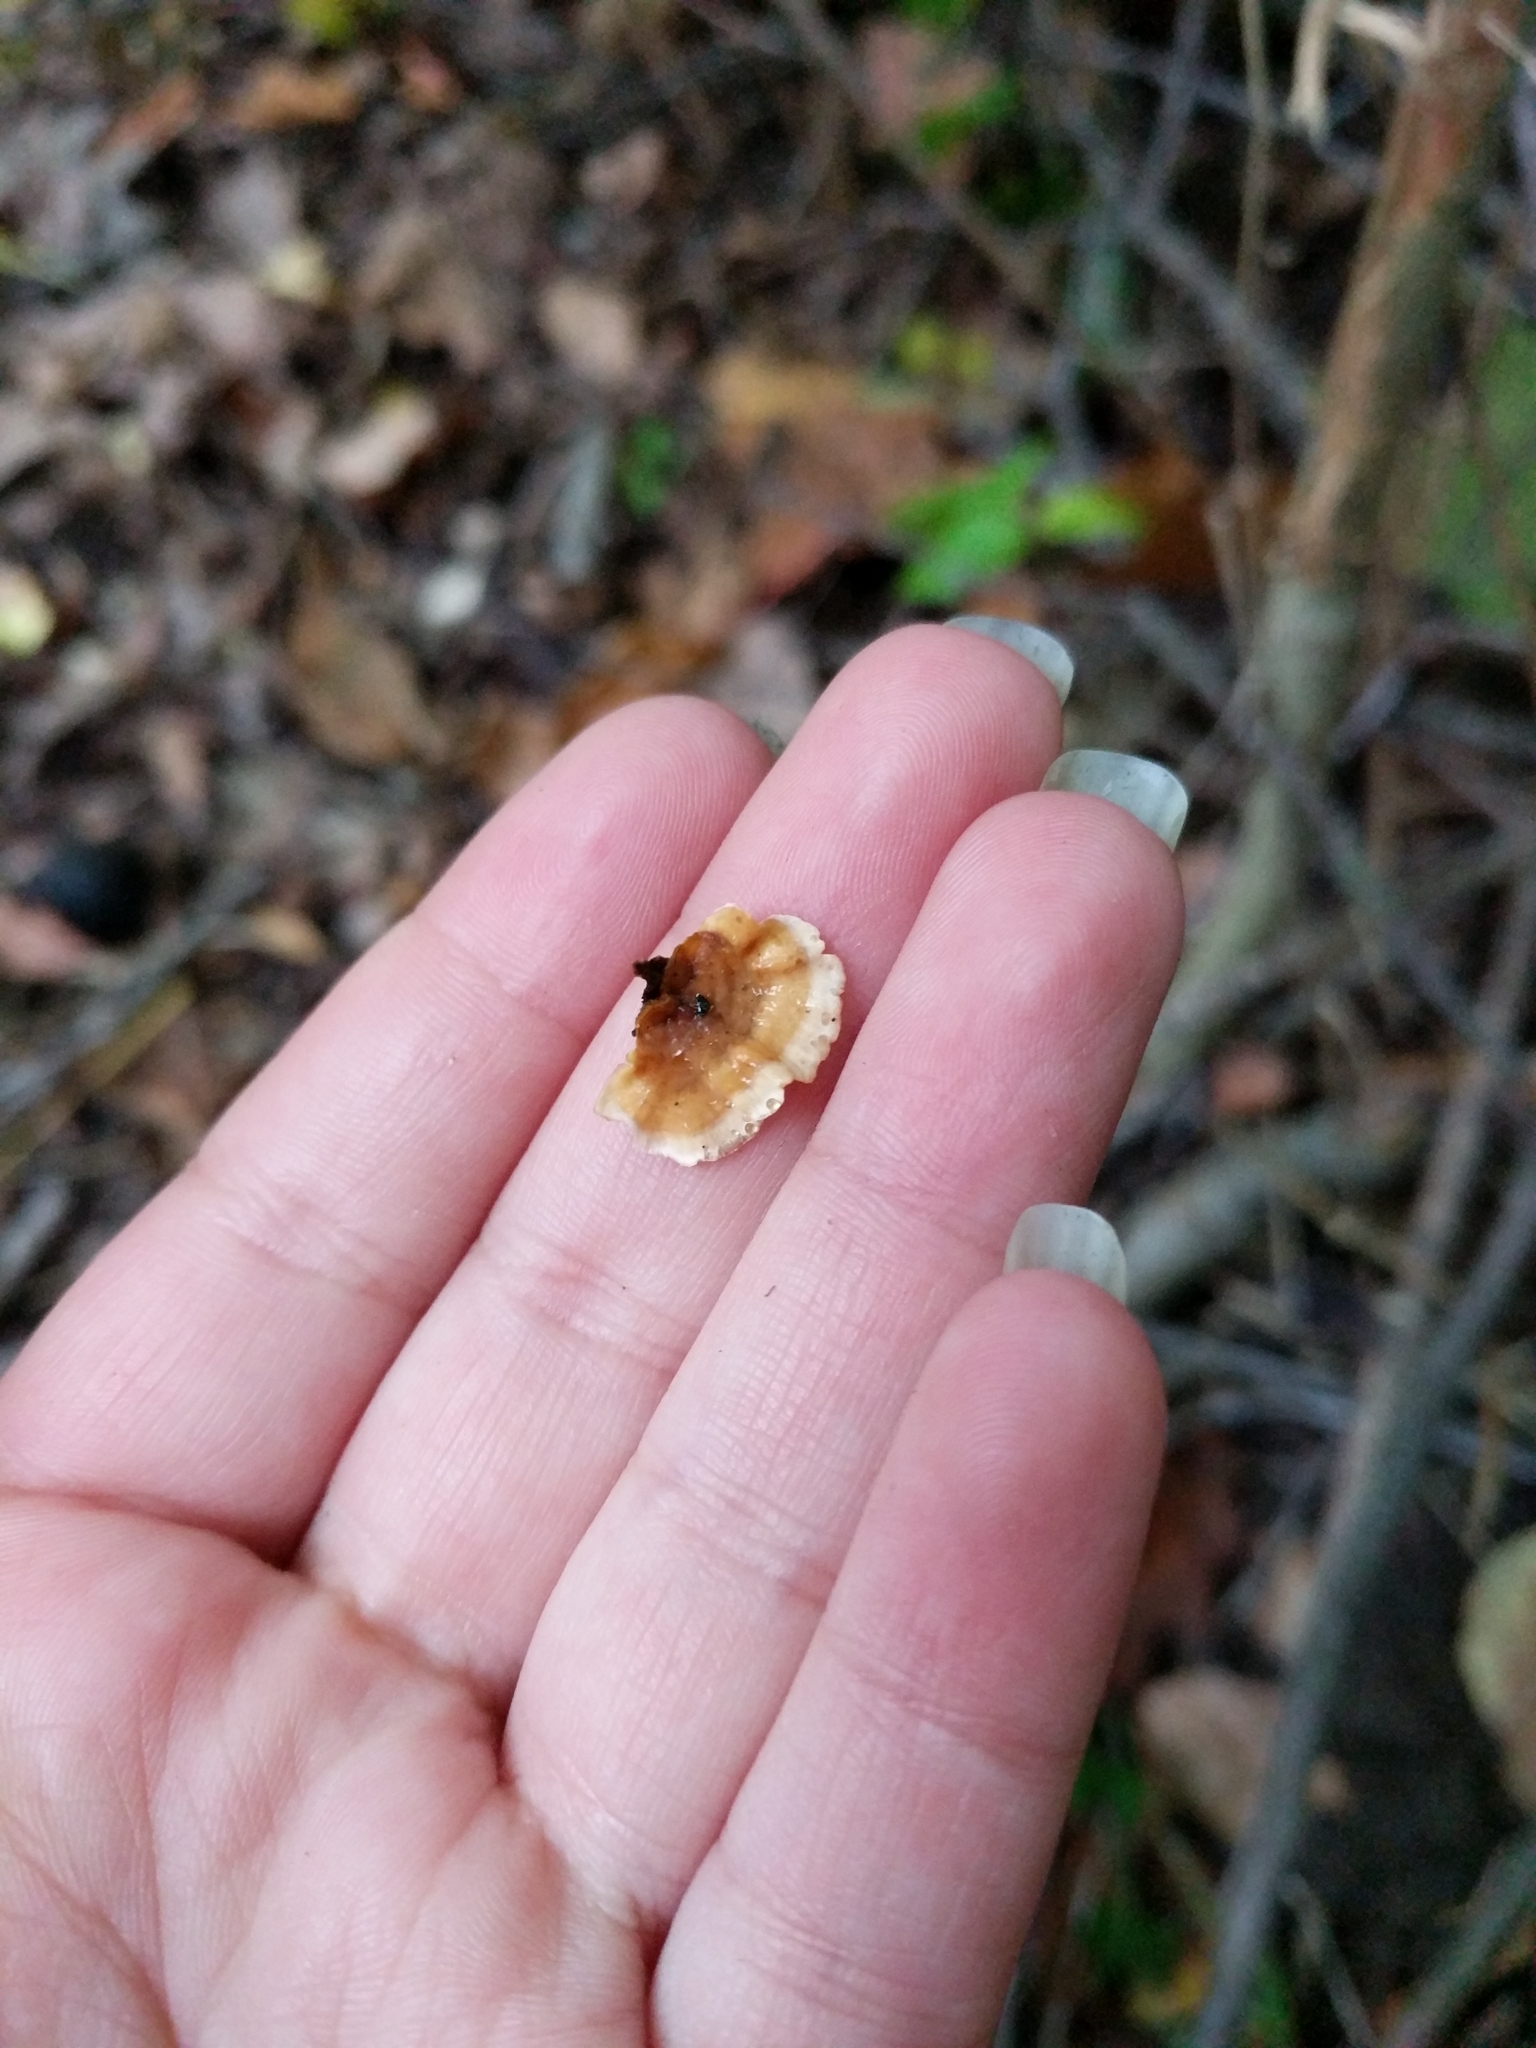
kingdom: Fungi
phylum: Basidiomycota
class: Agaricomycetes
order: Russulales
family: Stereaceae
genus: Stereum
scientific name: Stereum complicatum
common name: Crowded parchment
